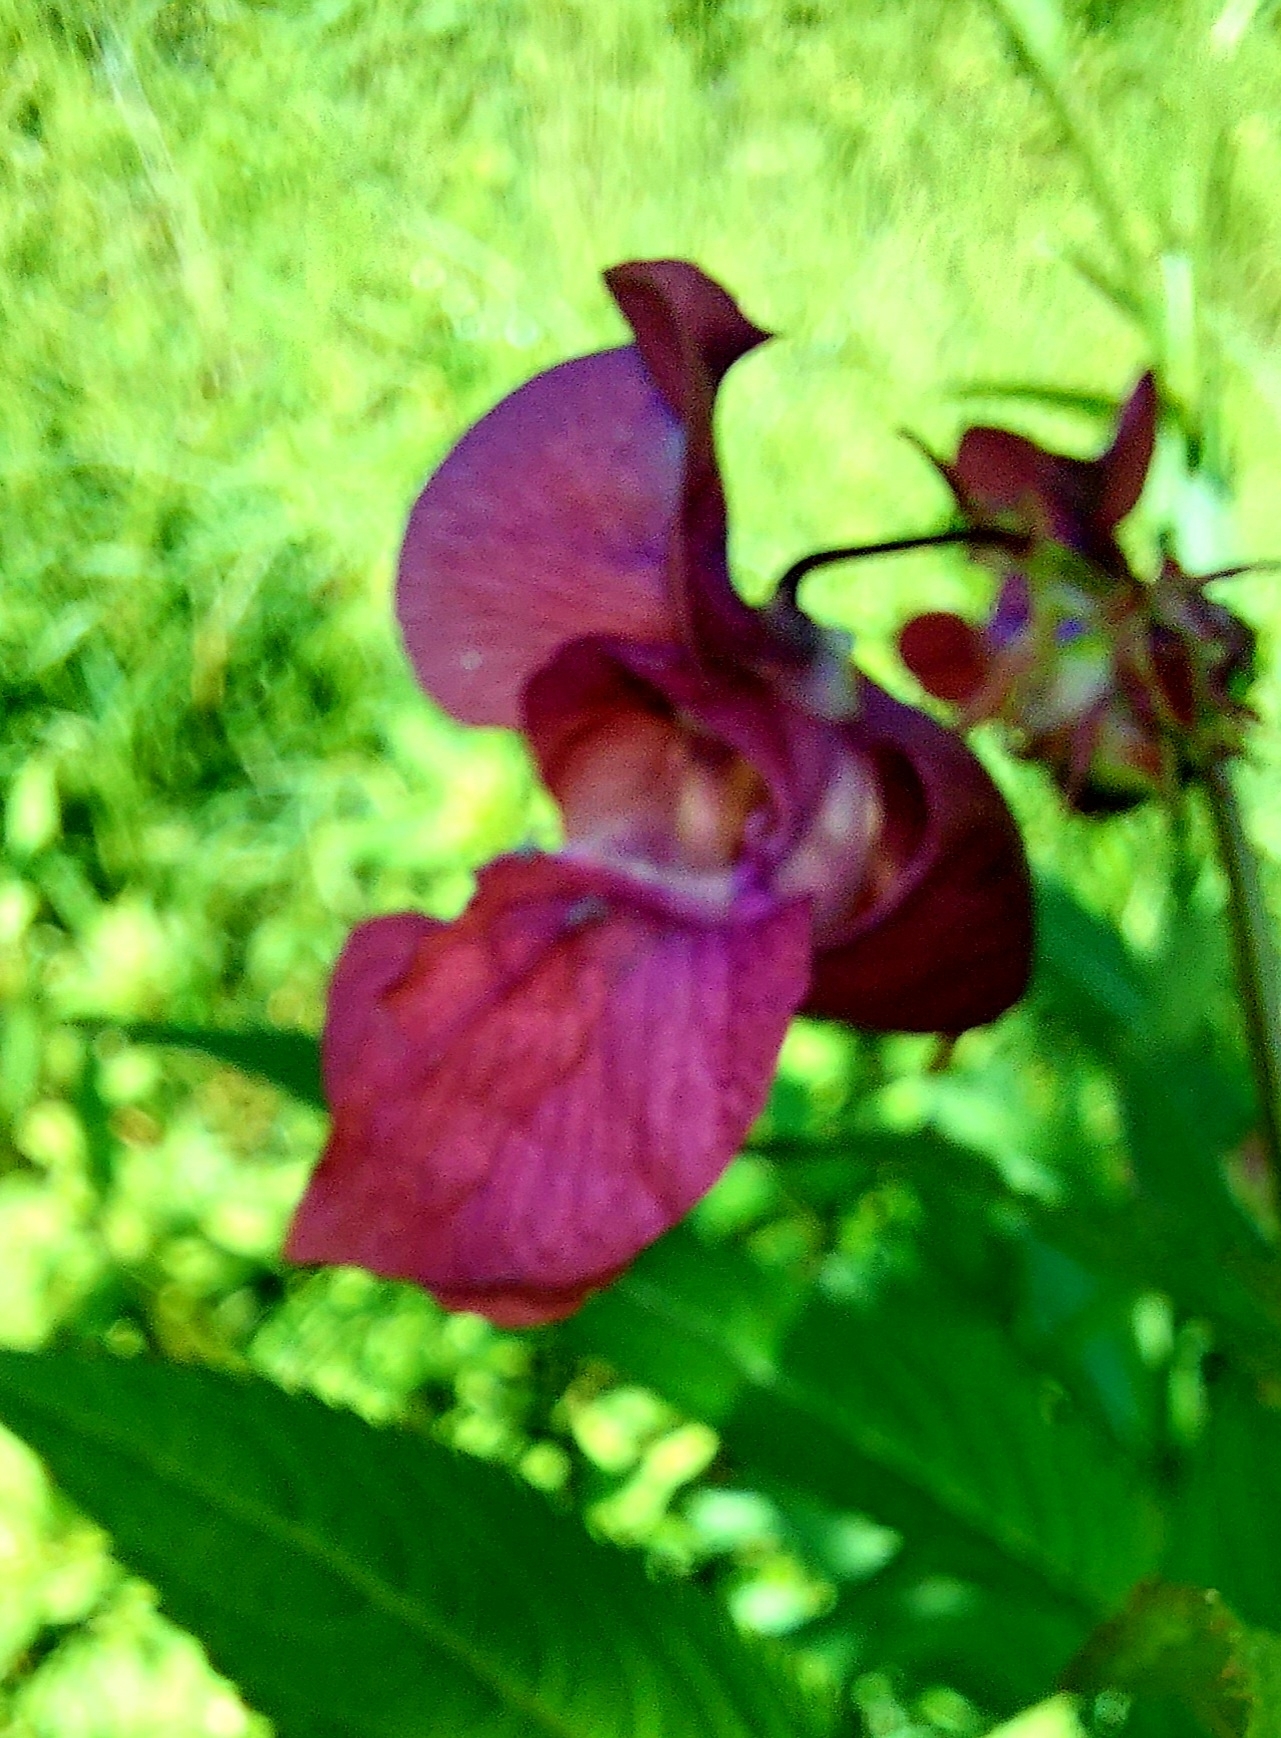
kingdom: Plantae
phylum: Tracheophyta
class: Magnoliopsida
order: Ericales
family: Balsaminaceae
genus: Impatiens
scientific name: Impatiens glandulifera
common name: Himalayan balsam
